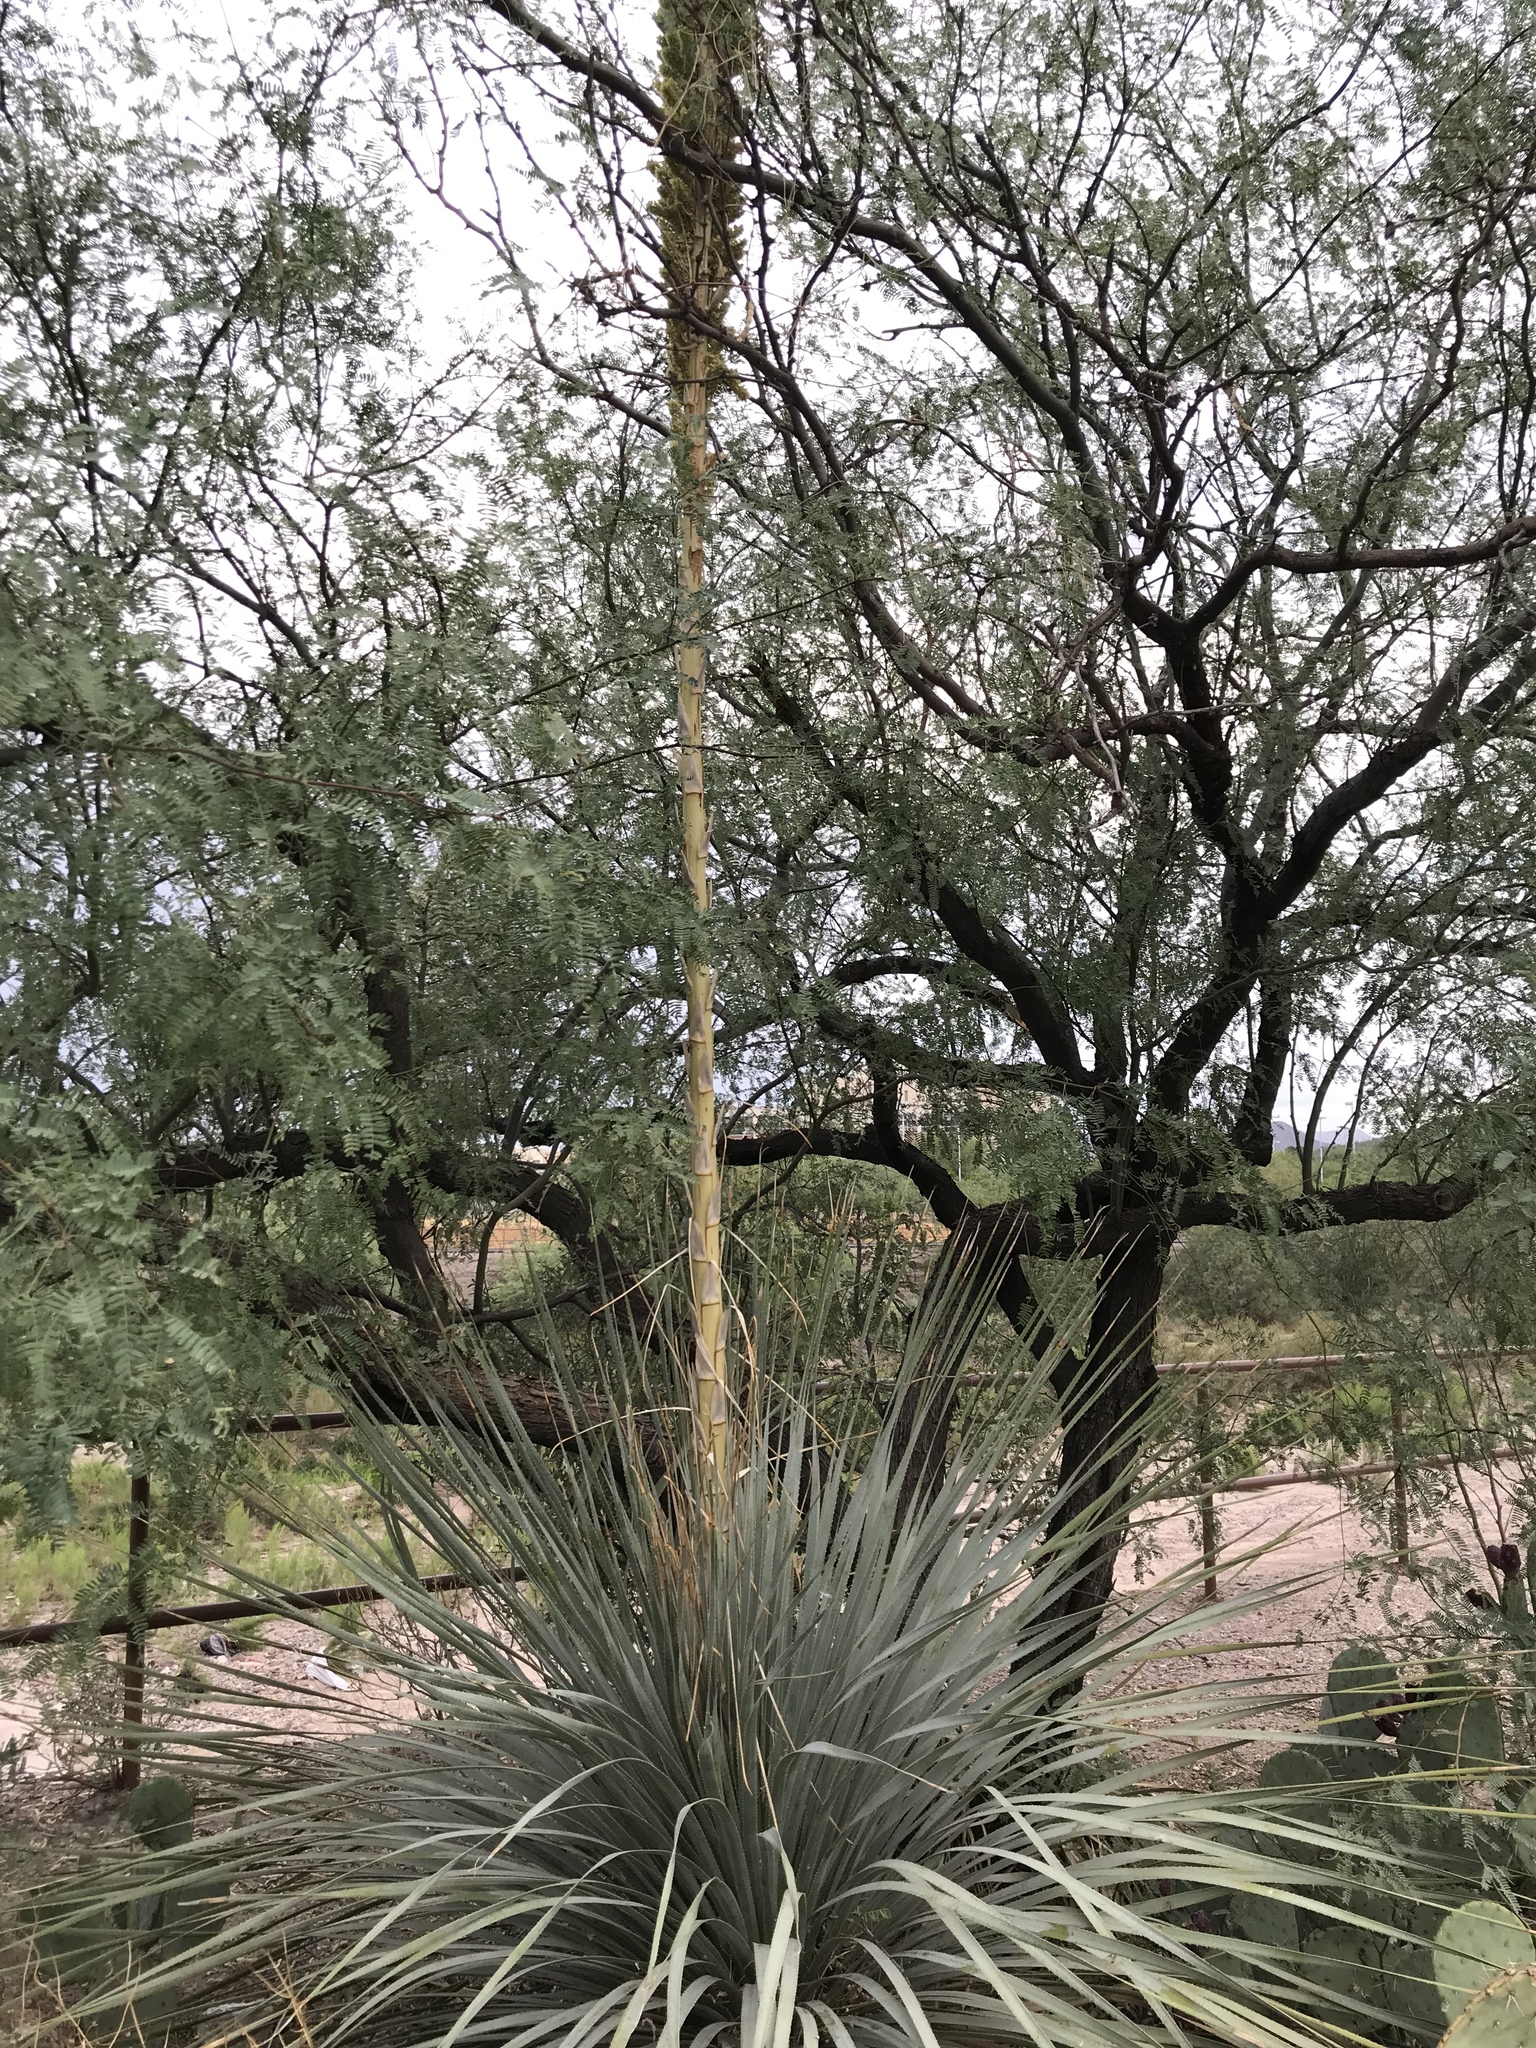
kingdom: Plantae
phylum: Tracheophyta
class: Liliopsida
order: Asparagales
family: Asparagaceae
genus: Dasylirion
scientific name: Dasylirion wheeleri
